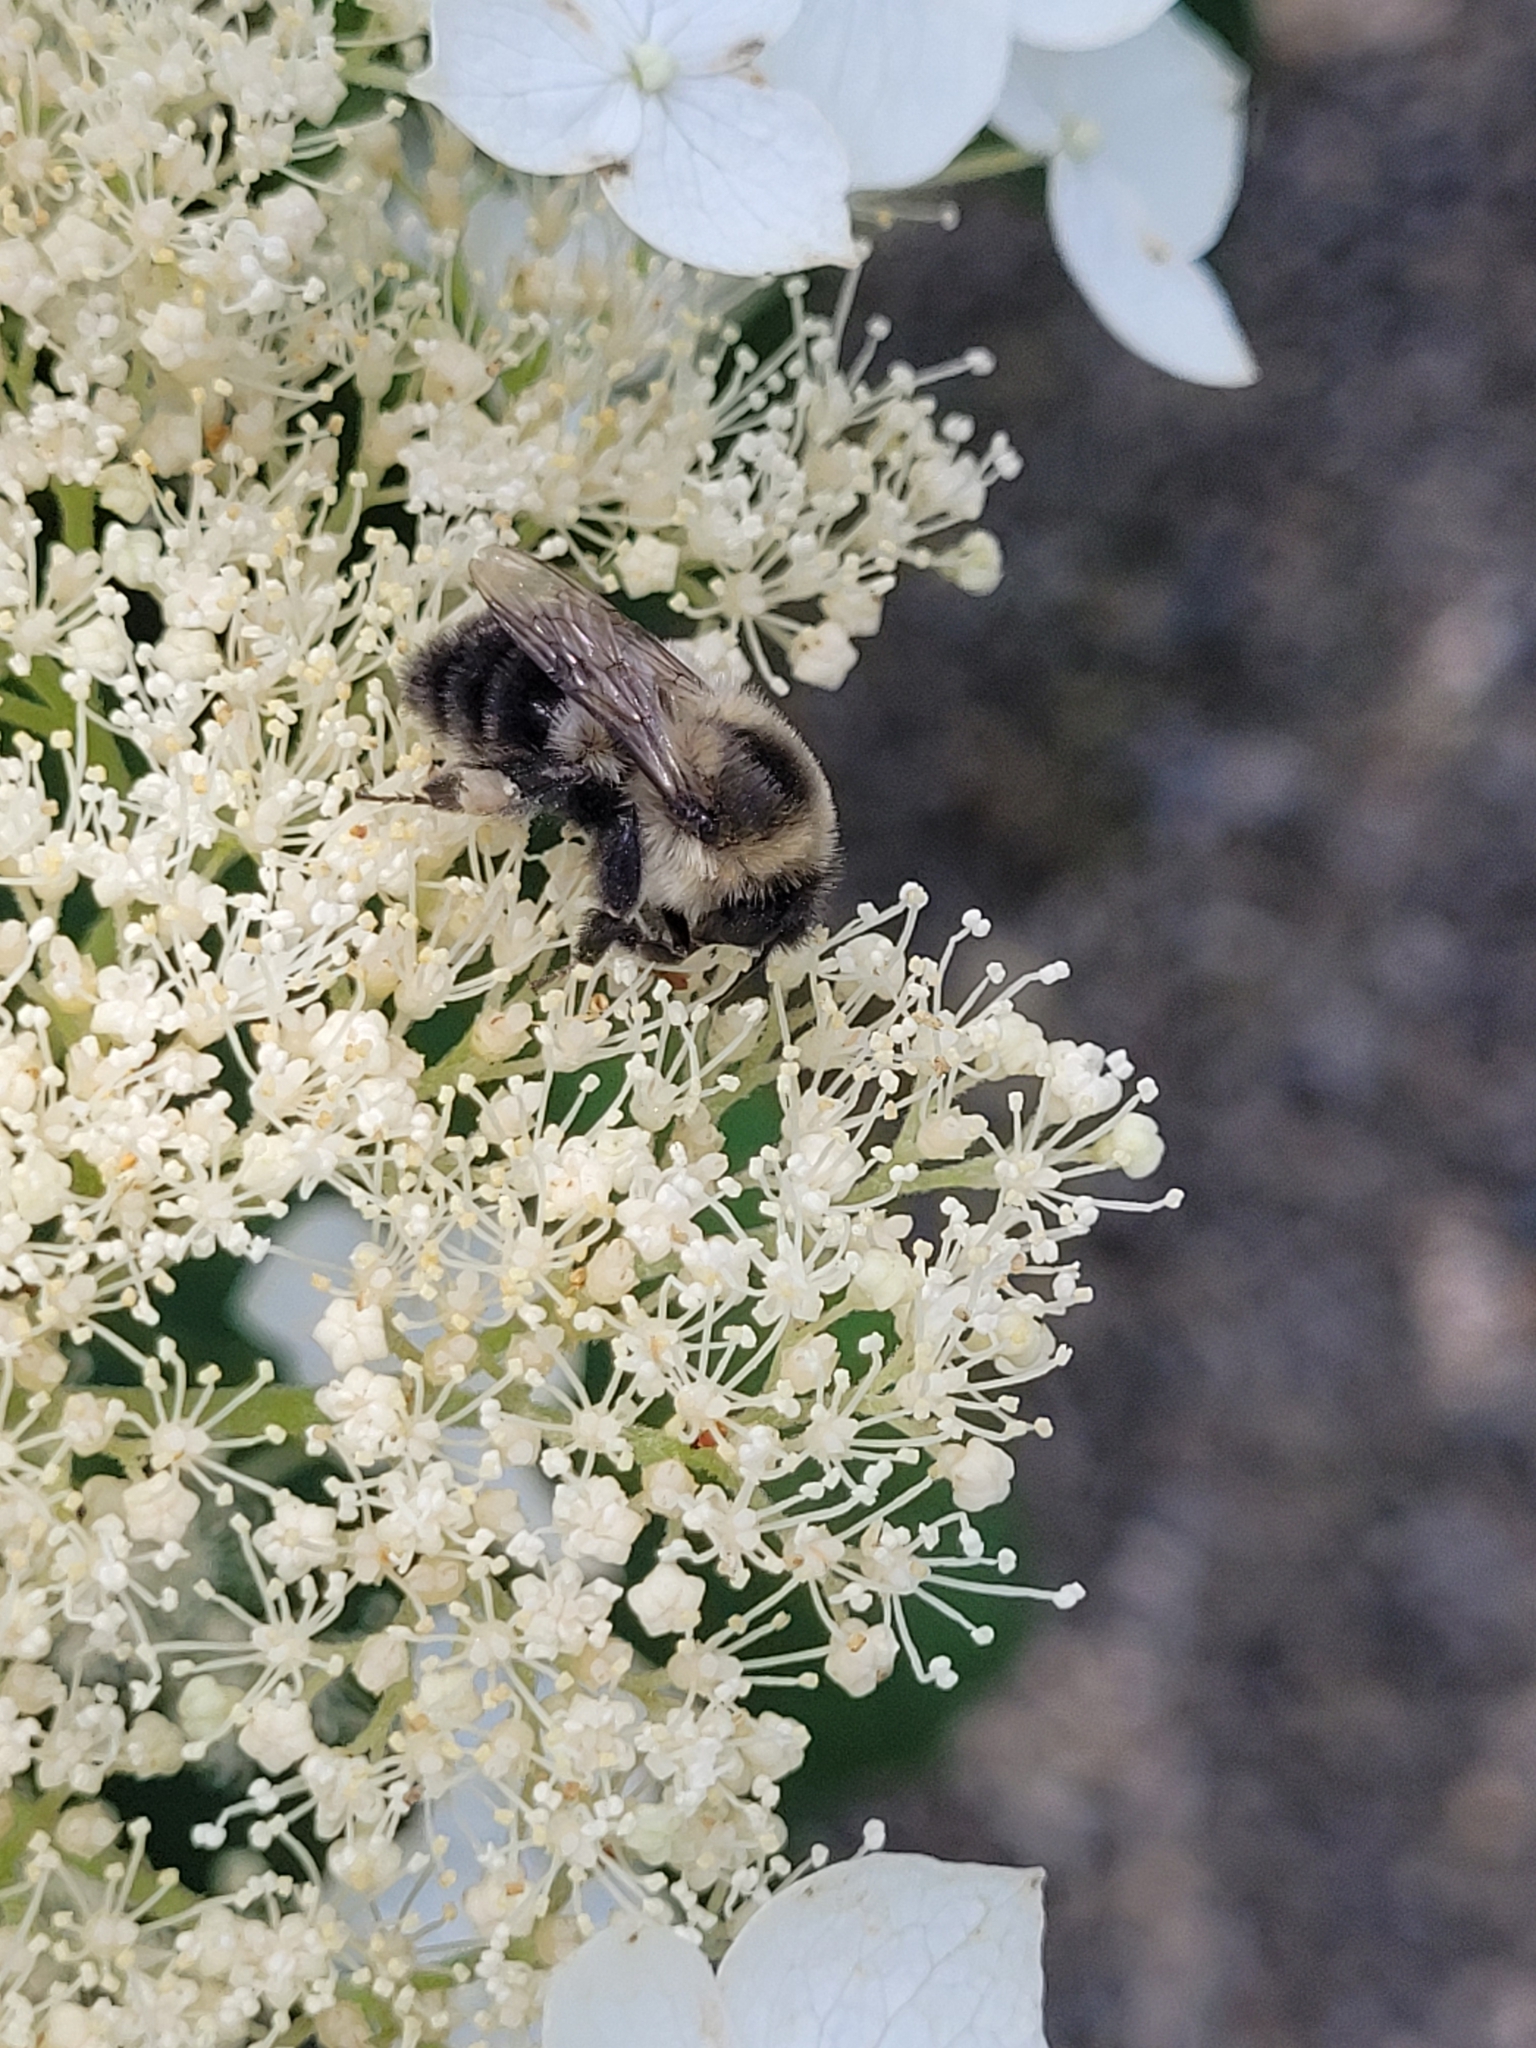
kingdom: Animalia
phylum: Arthropoda
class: Insecta
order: Hymenoptera
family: Apidae
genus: Bombus
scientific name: Bombus impatiens
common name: Common eastern bumble bee
